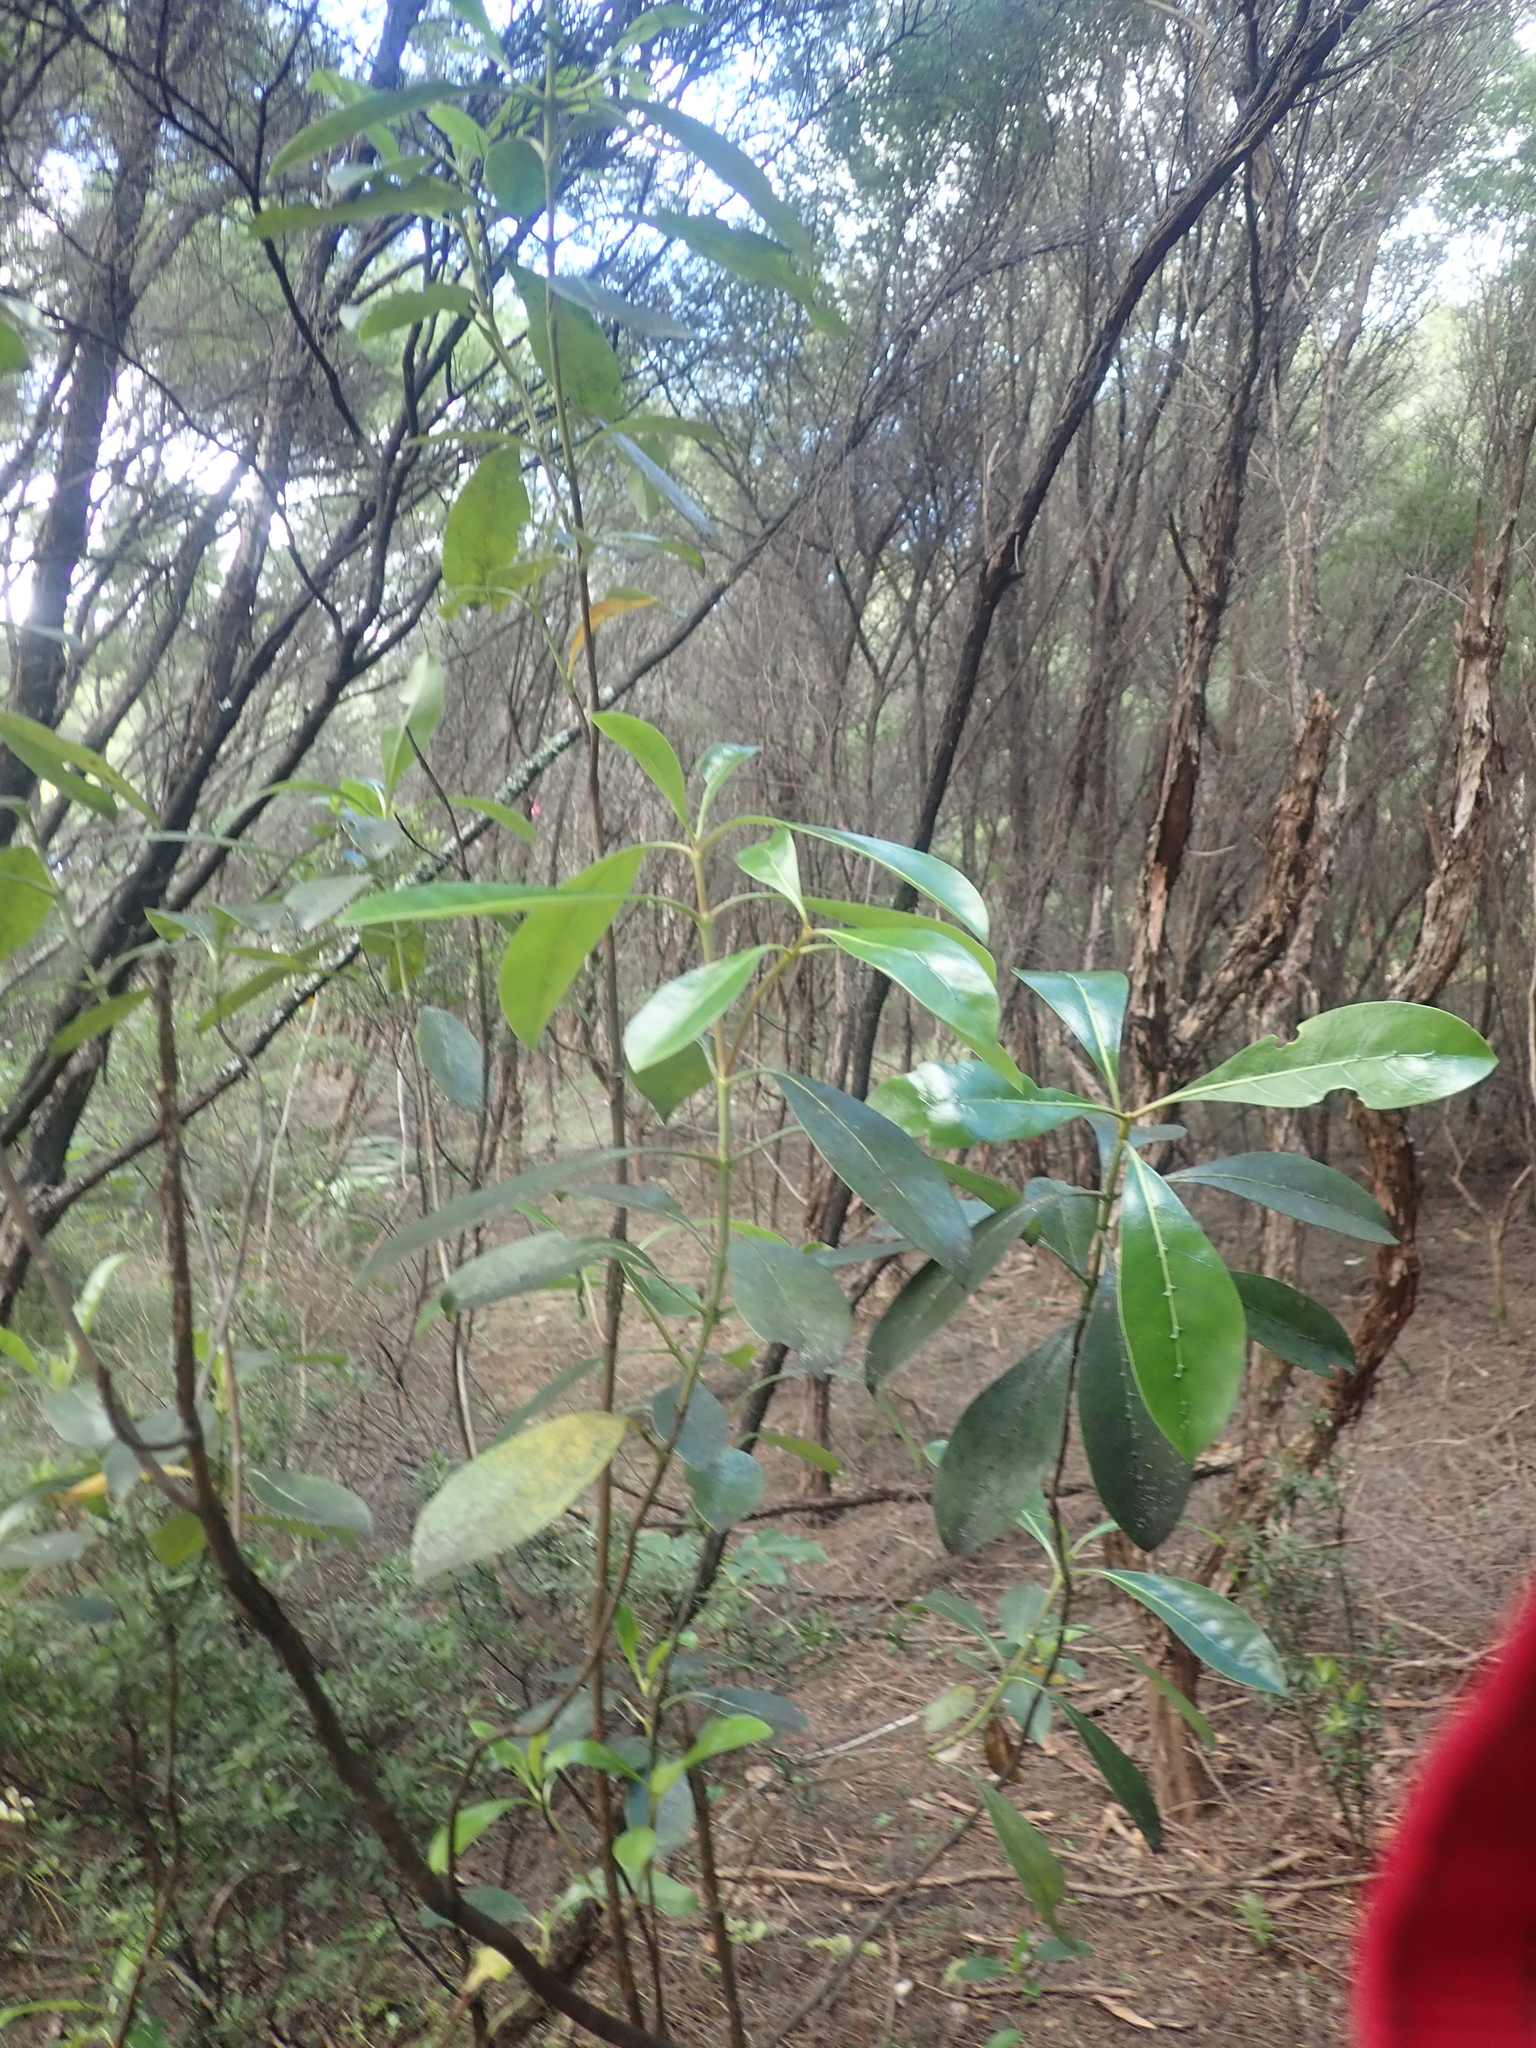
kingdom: Plantae
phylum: Tracheophyta
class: Magnoliopsida
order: Gentianales
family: Rubiaceae
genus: Coprosma
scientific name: Coprosma lucida
